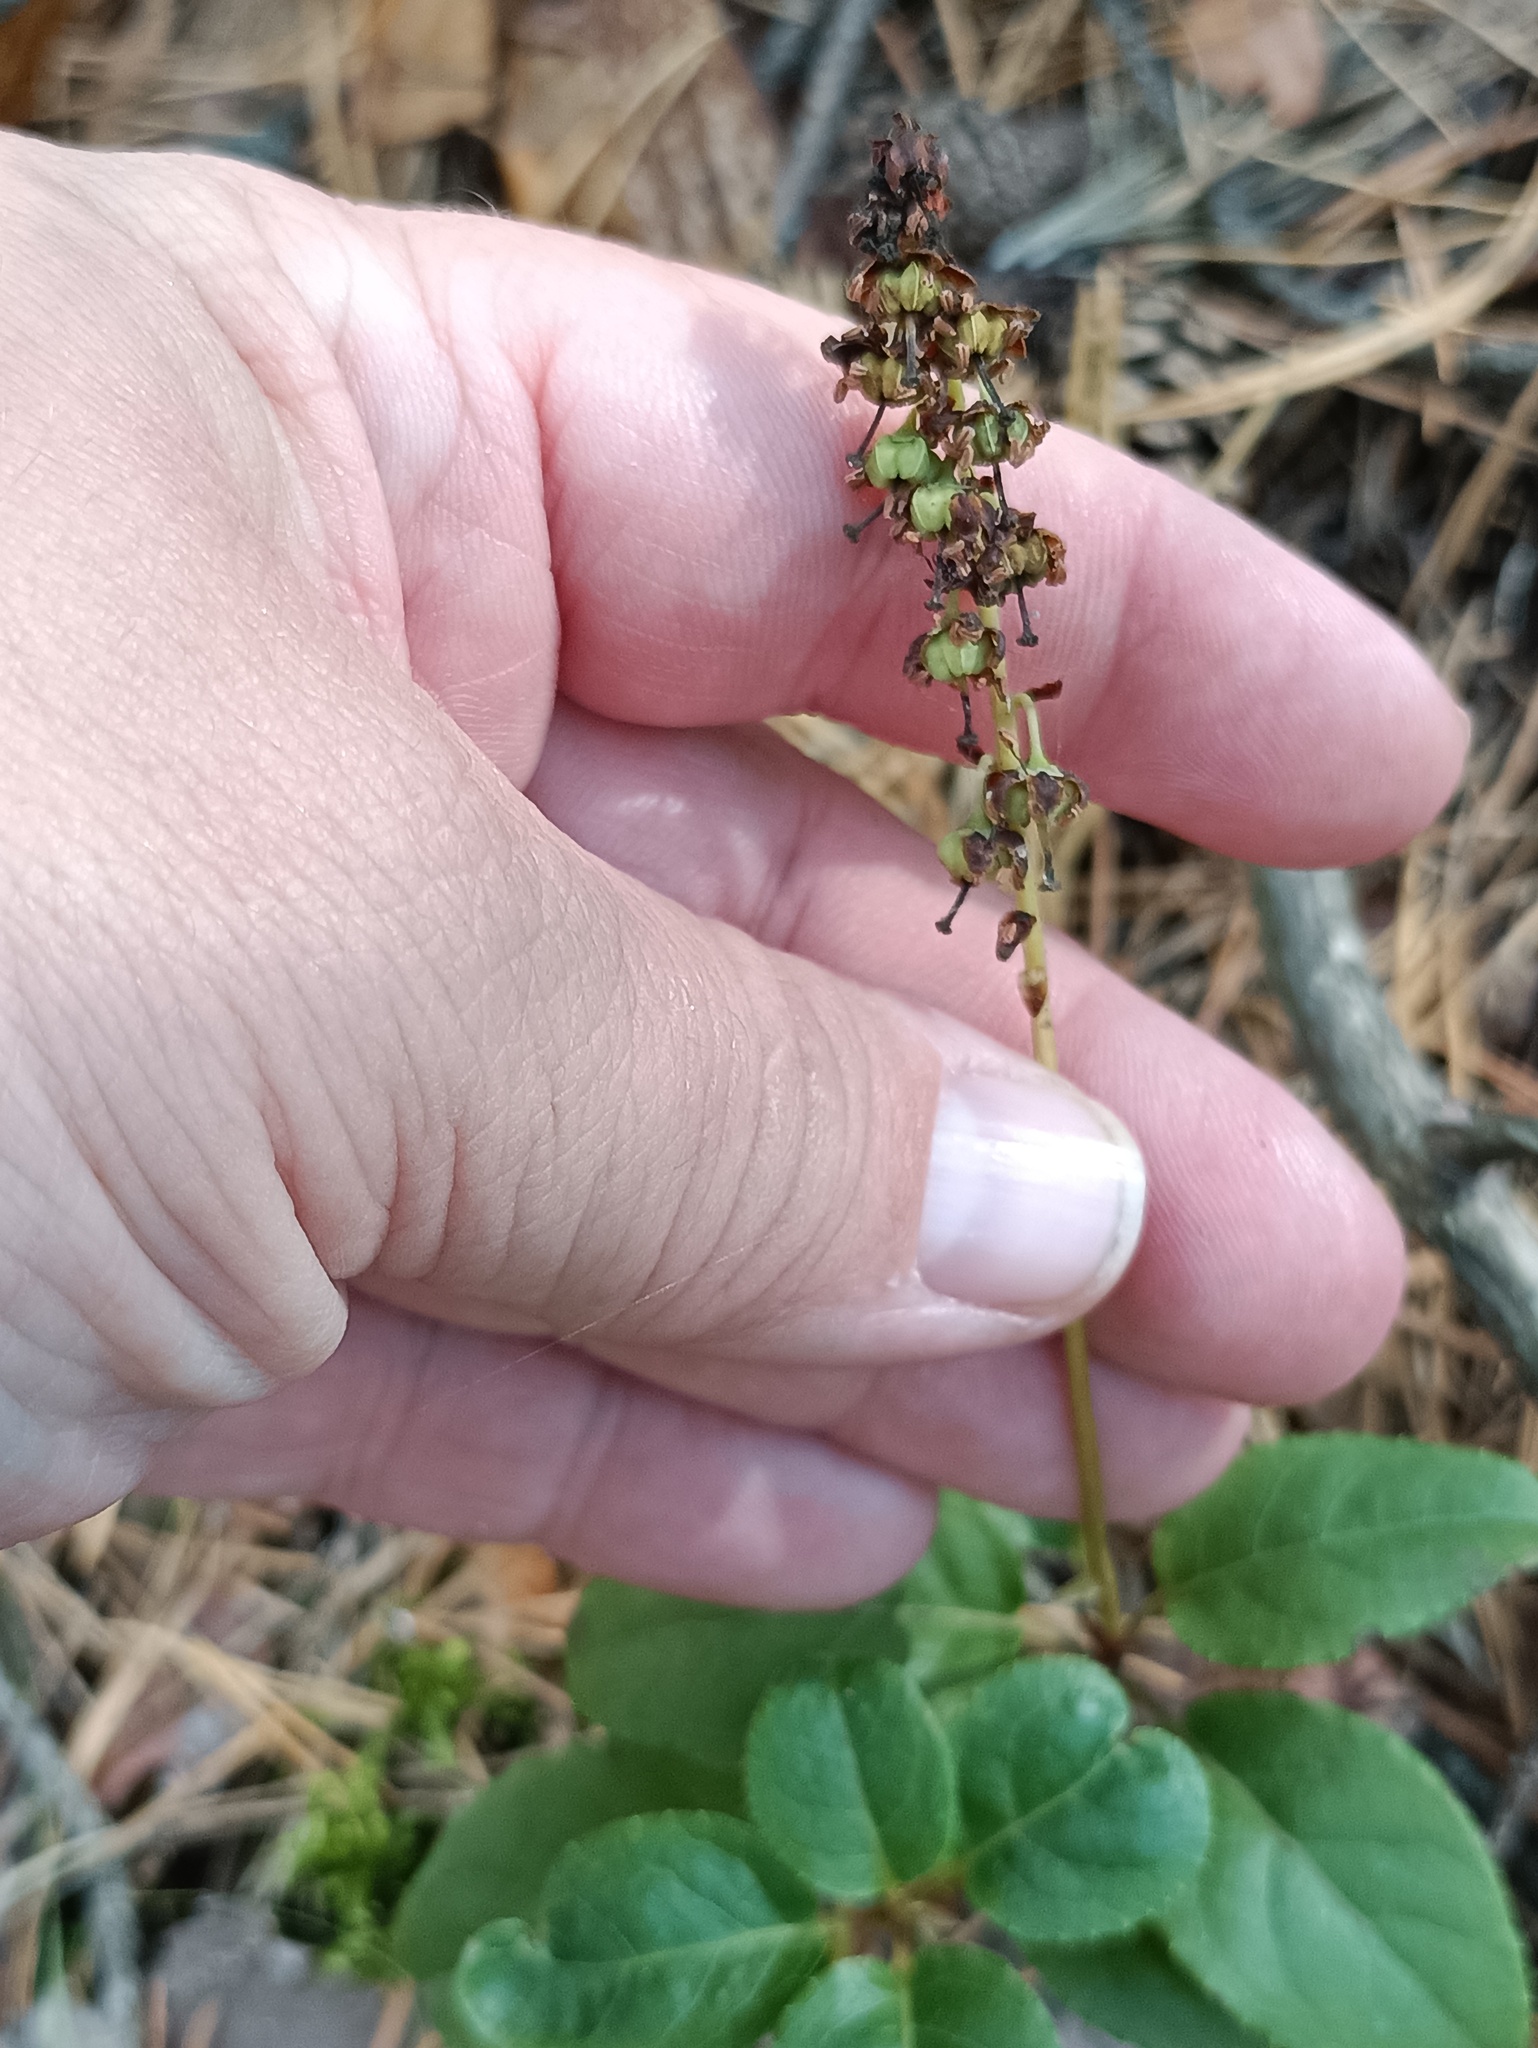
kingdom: Plantae
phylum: Tracheophyta
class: Magnoliopsida
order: Ericales
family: Ericaceae
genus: Orthilia
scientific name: Orthilia secunda
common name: One-sided orthilia
